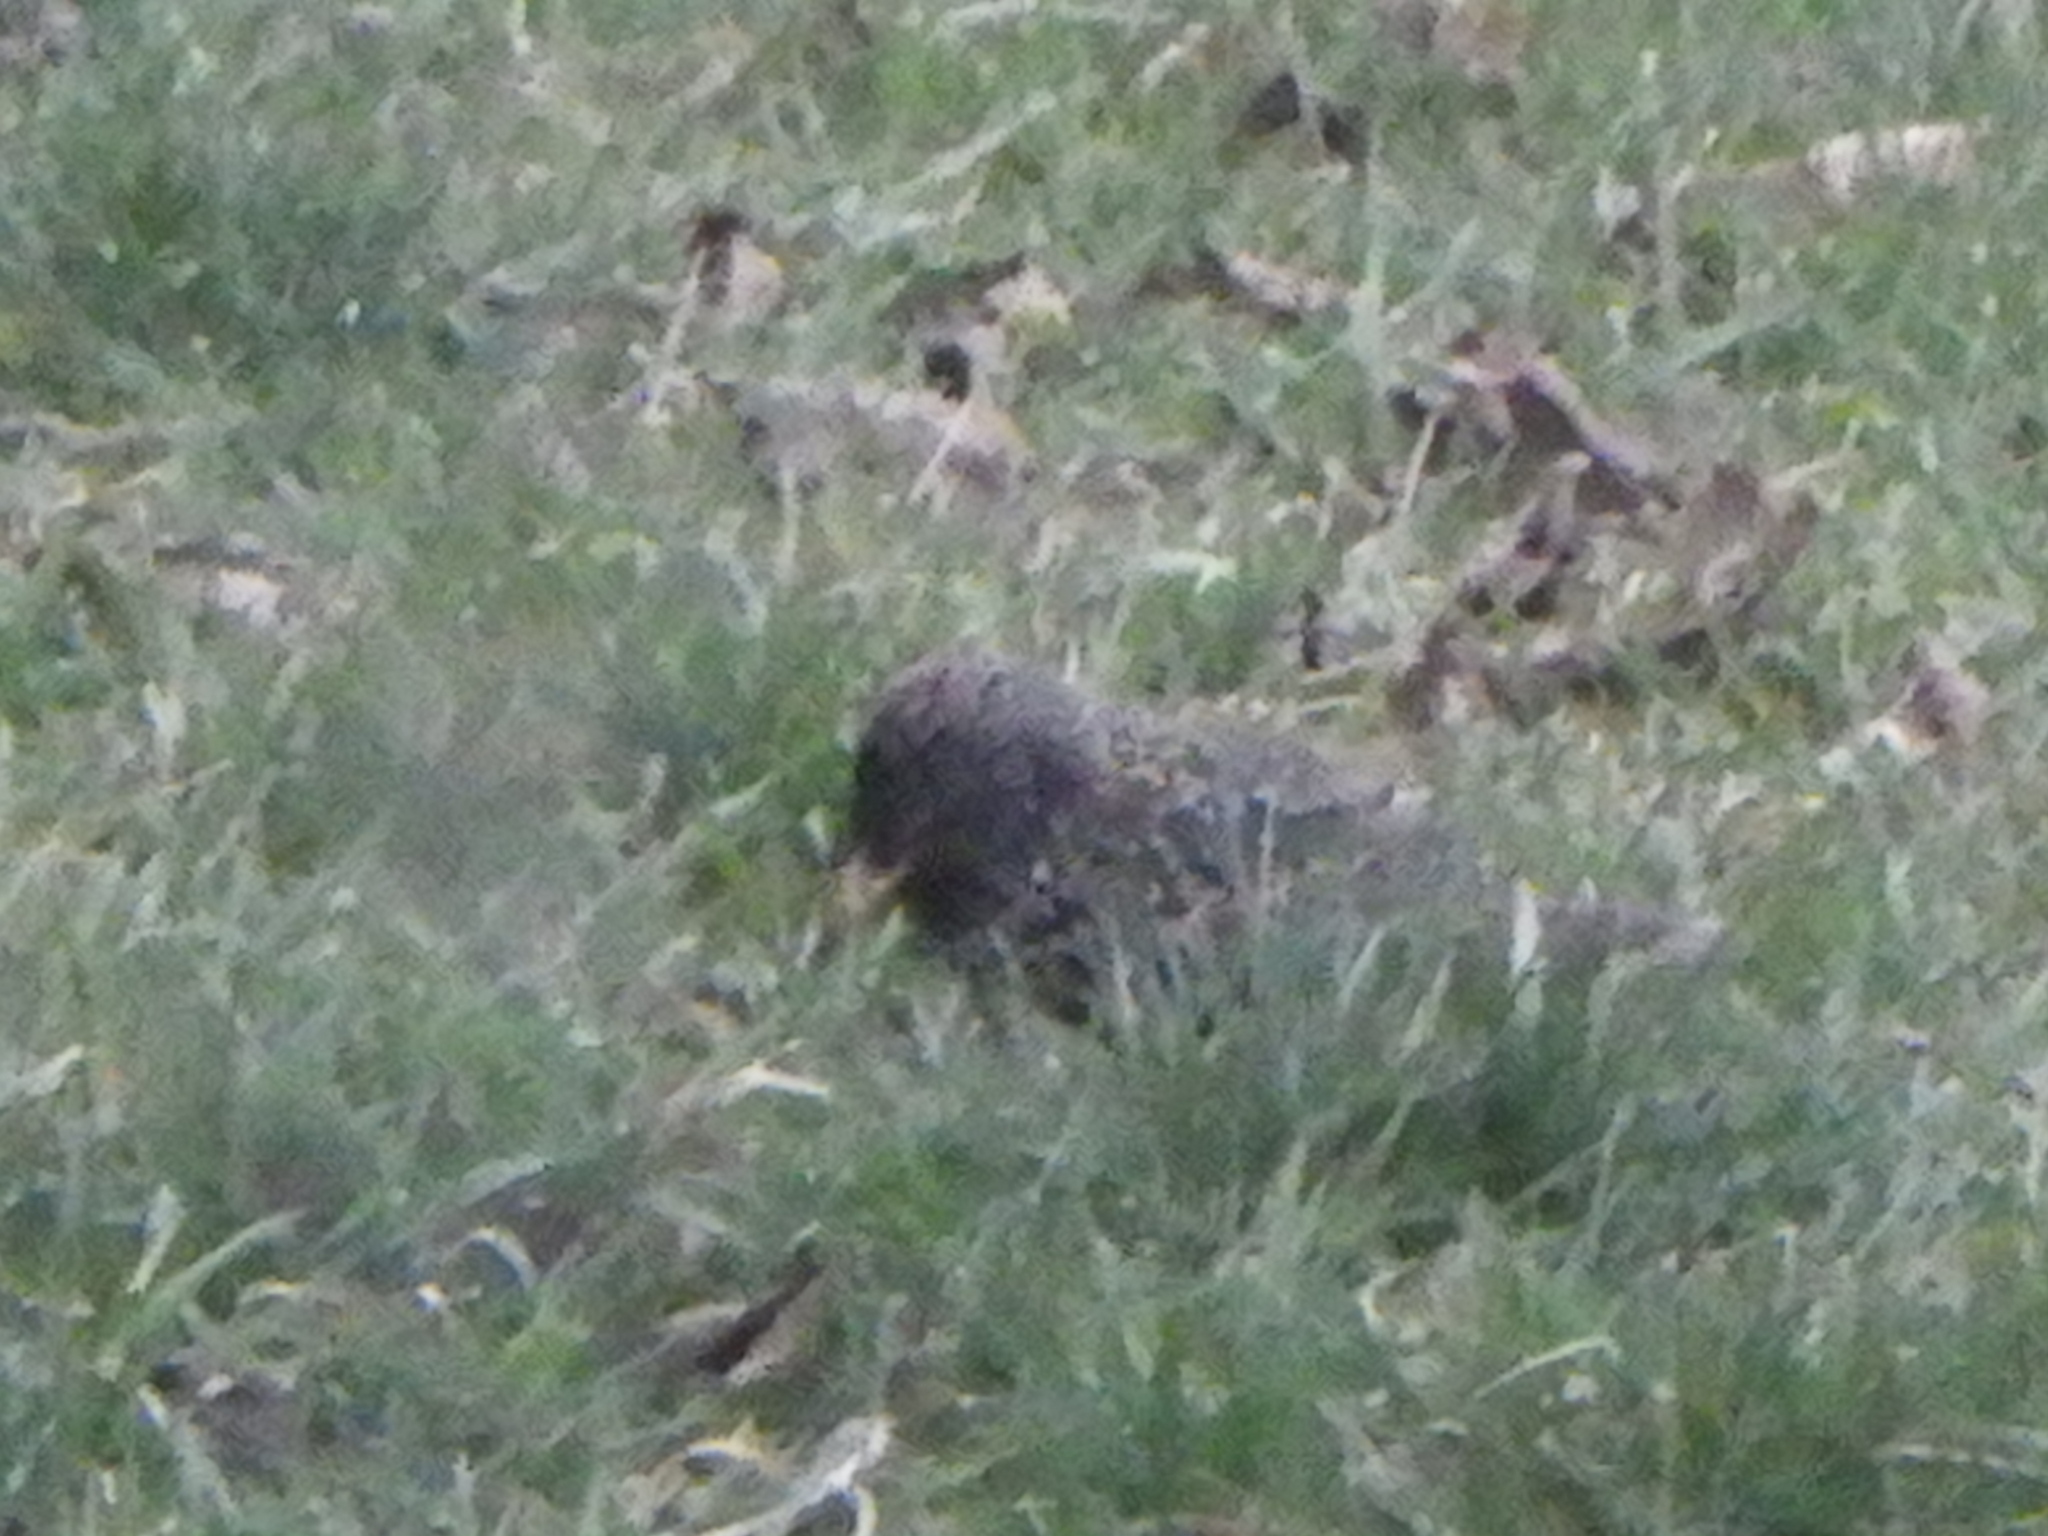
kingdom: Animalia
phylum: Chordata
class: Aves
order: Passeriformes
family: Sturnidae
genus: Sturnus
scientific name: Sturnus vulgaris
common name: Common starling
